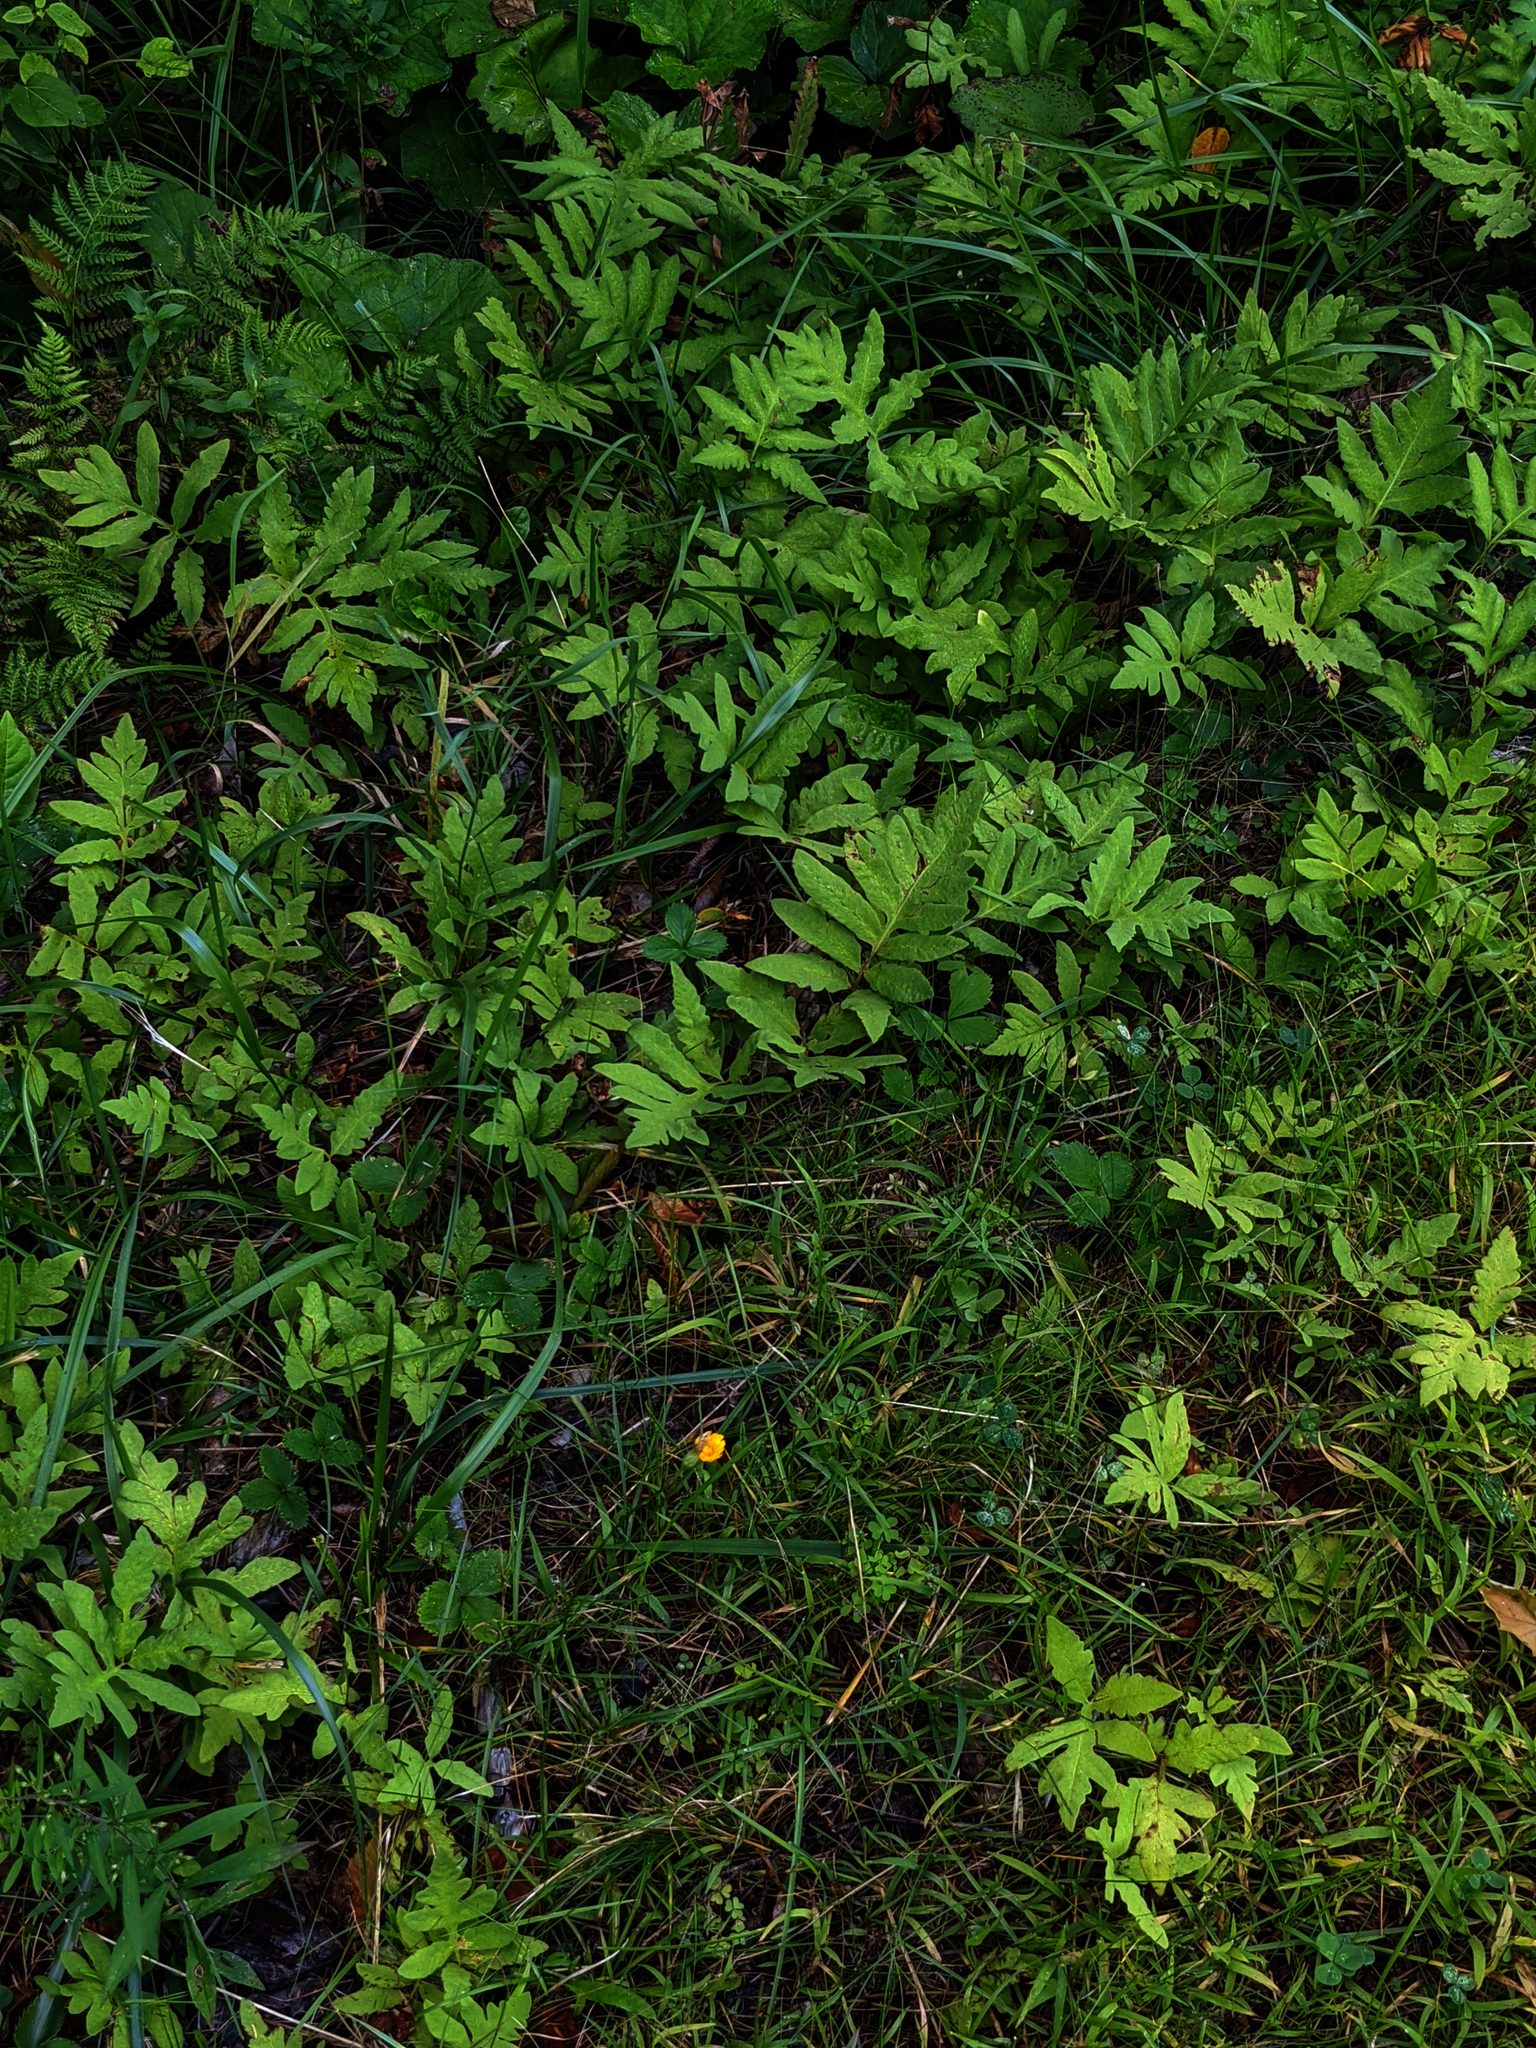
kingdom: Plantae
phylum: Tracheophyta
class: Polypodiopsida
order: Polypodiales
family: Onocleaceae
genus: Onoclea
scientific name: Onoclea sensibilis
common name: Sensitive fern
